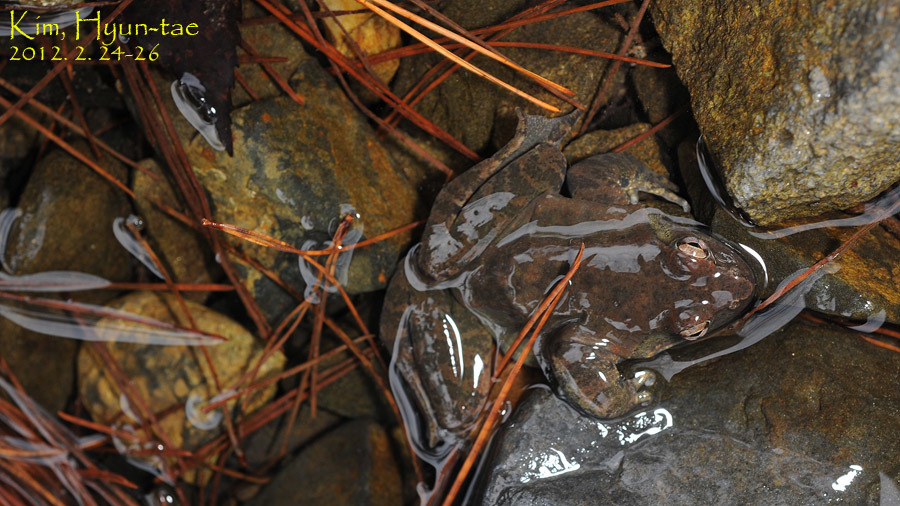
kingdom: Animalia
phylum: Chordata
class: Amphibia
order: Anura
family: Ranidae
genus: Rana
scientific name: Rana huanrenensis
